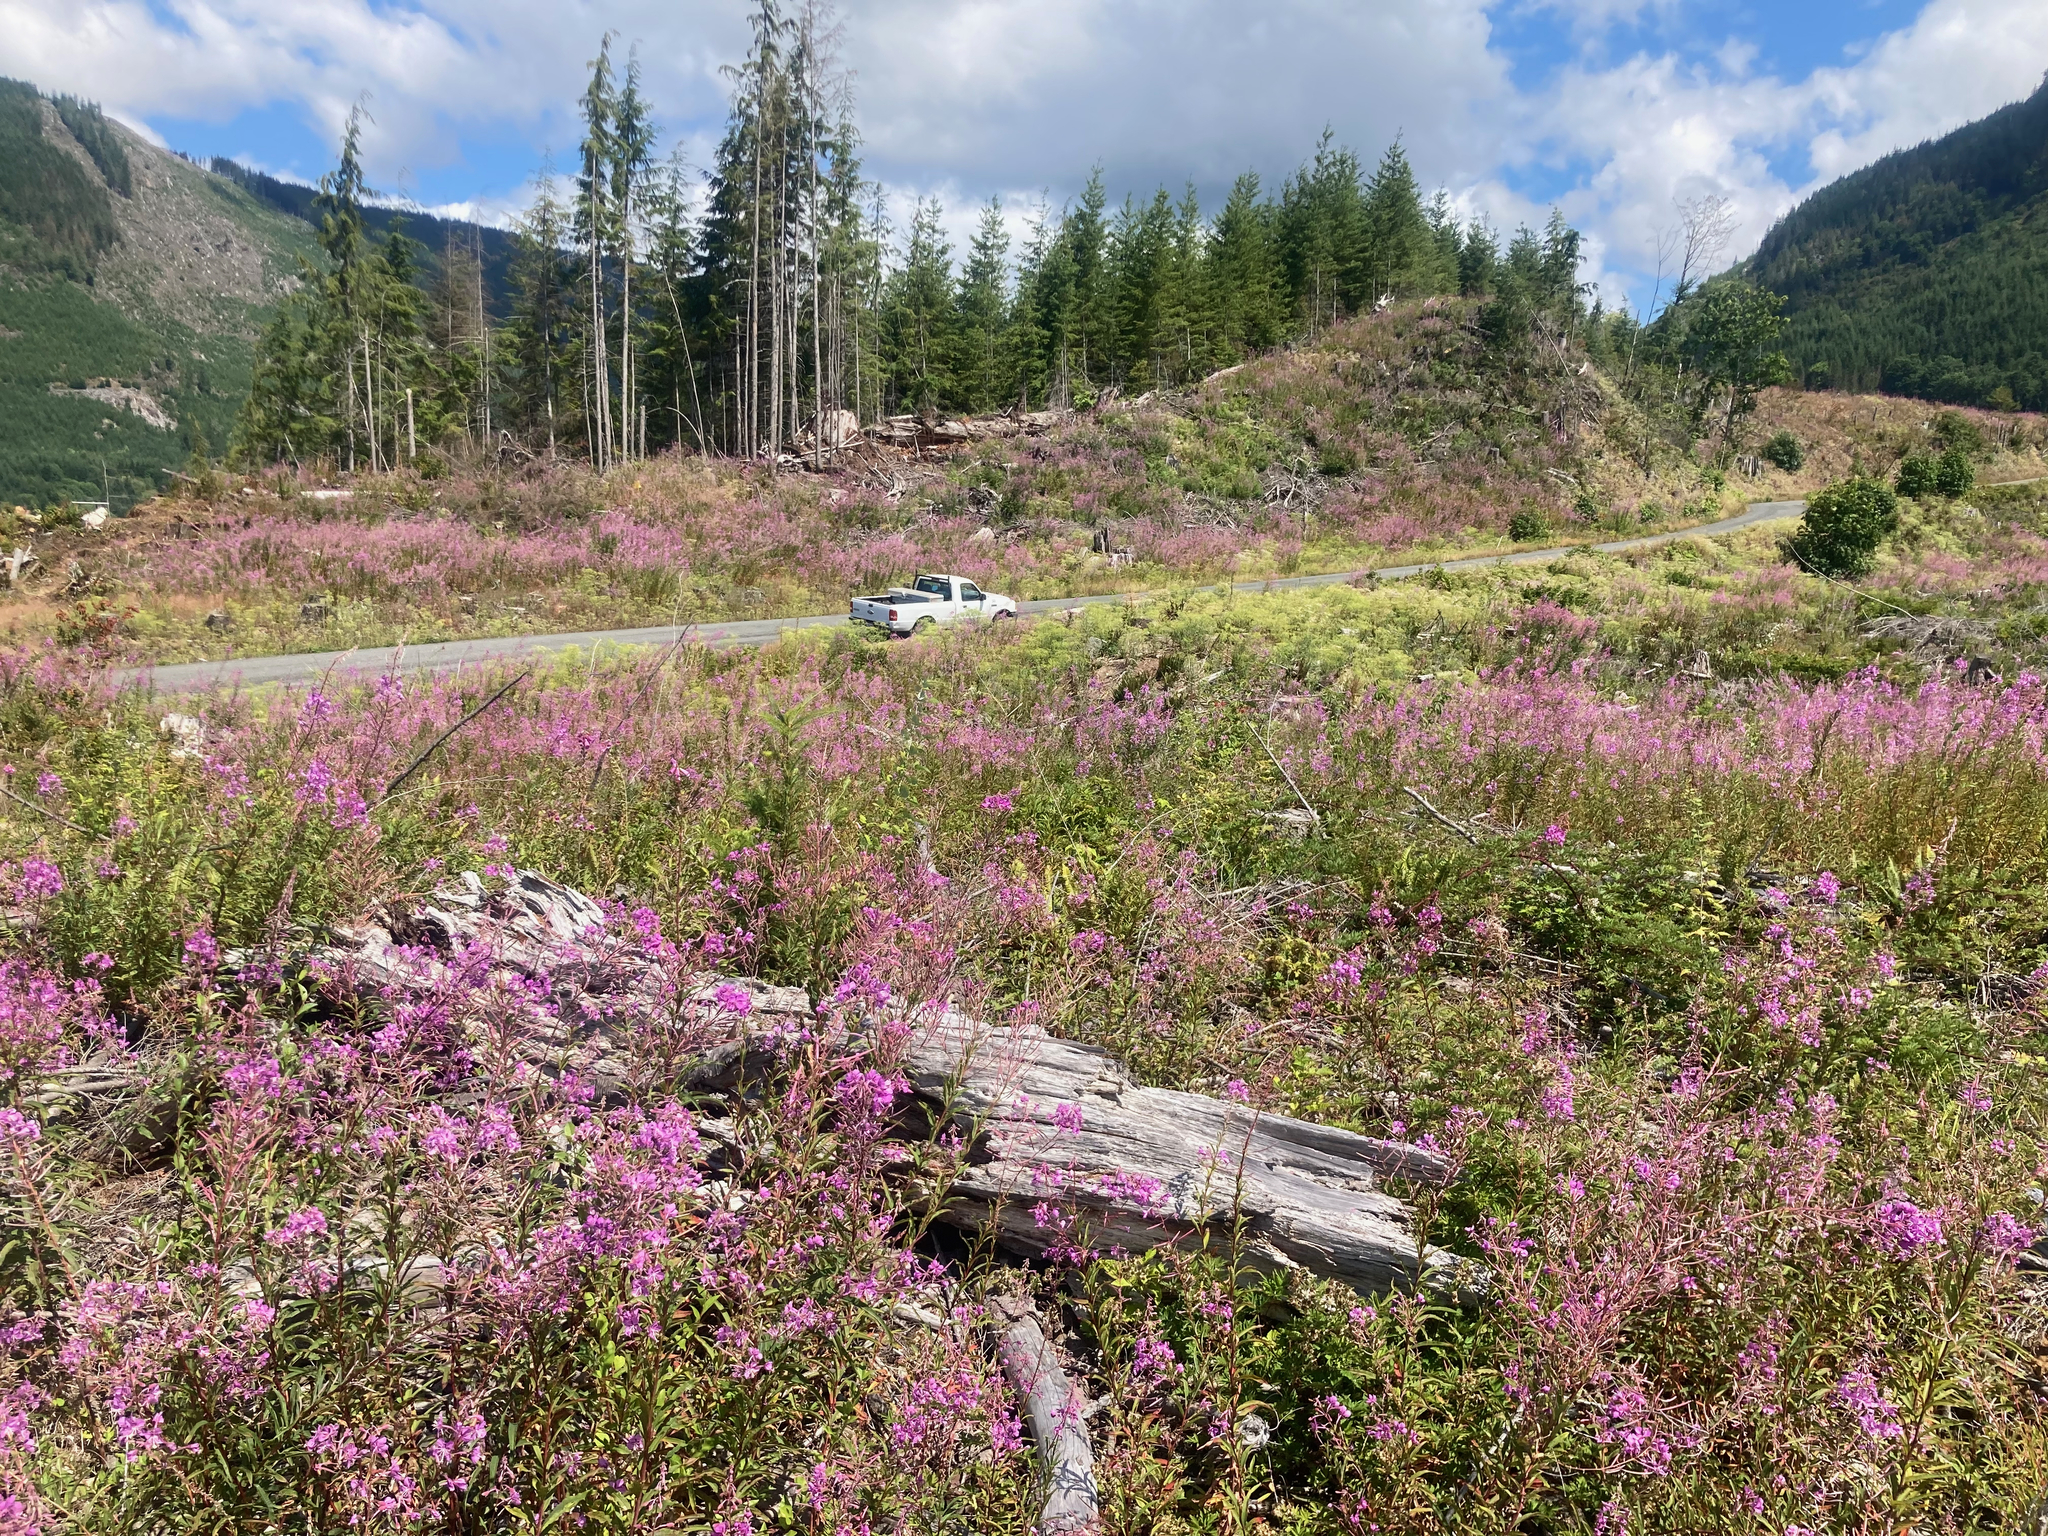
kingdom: Plantae
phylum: Tracheophyta
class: Magnoliopsida
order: Myrtales
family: Onagraceae
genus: Chamaenerion
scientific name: Chamaenerion angustifolium
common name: Fireweed
